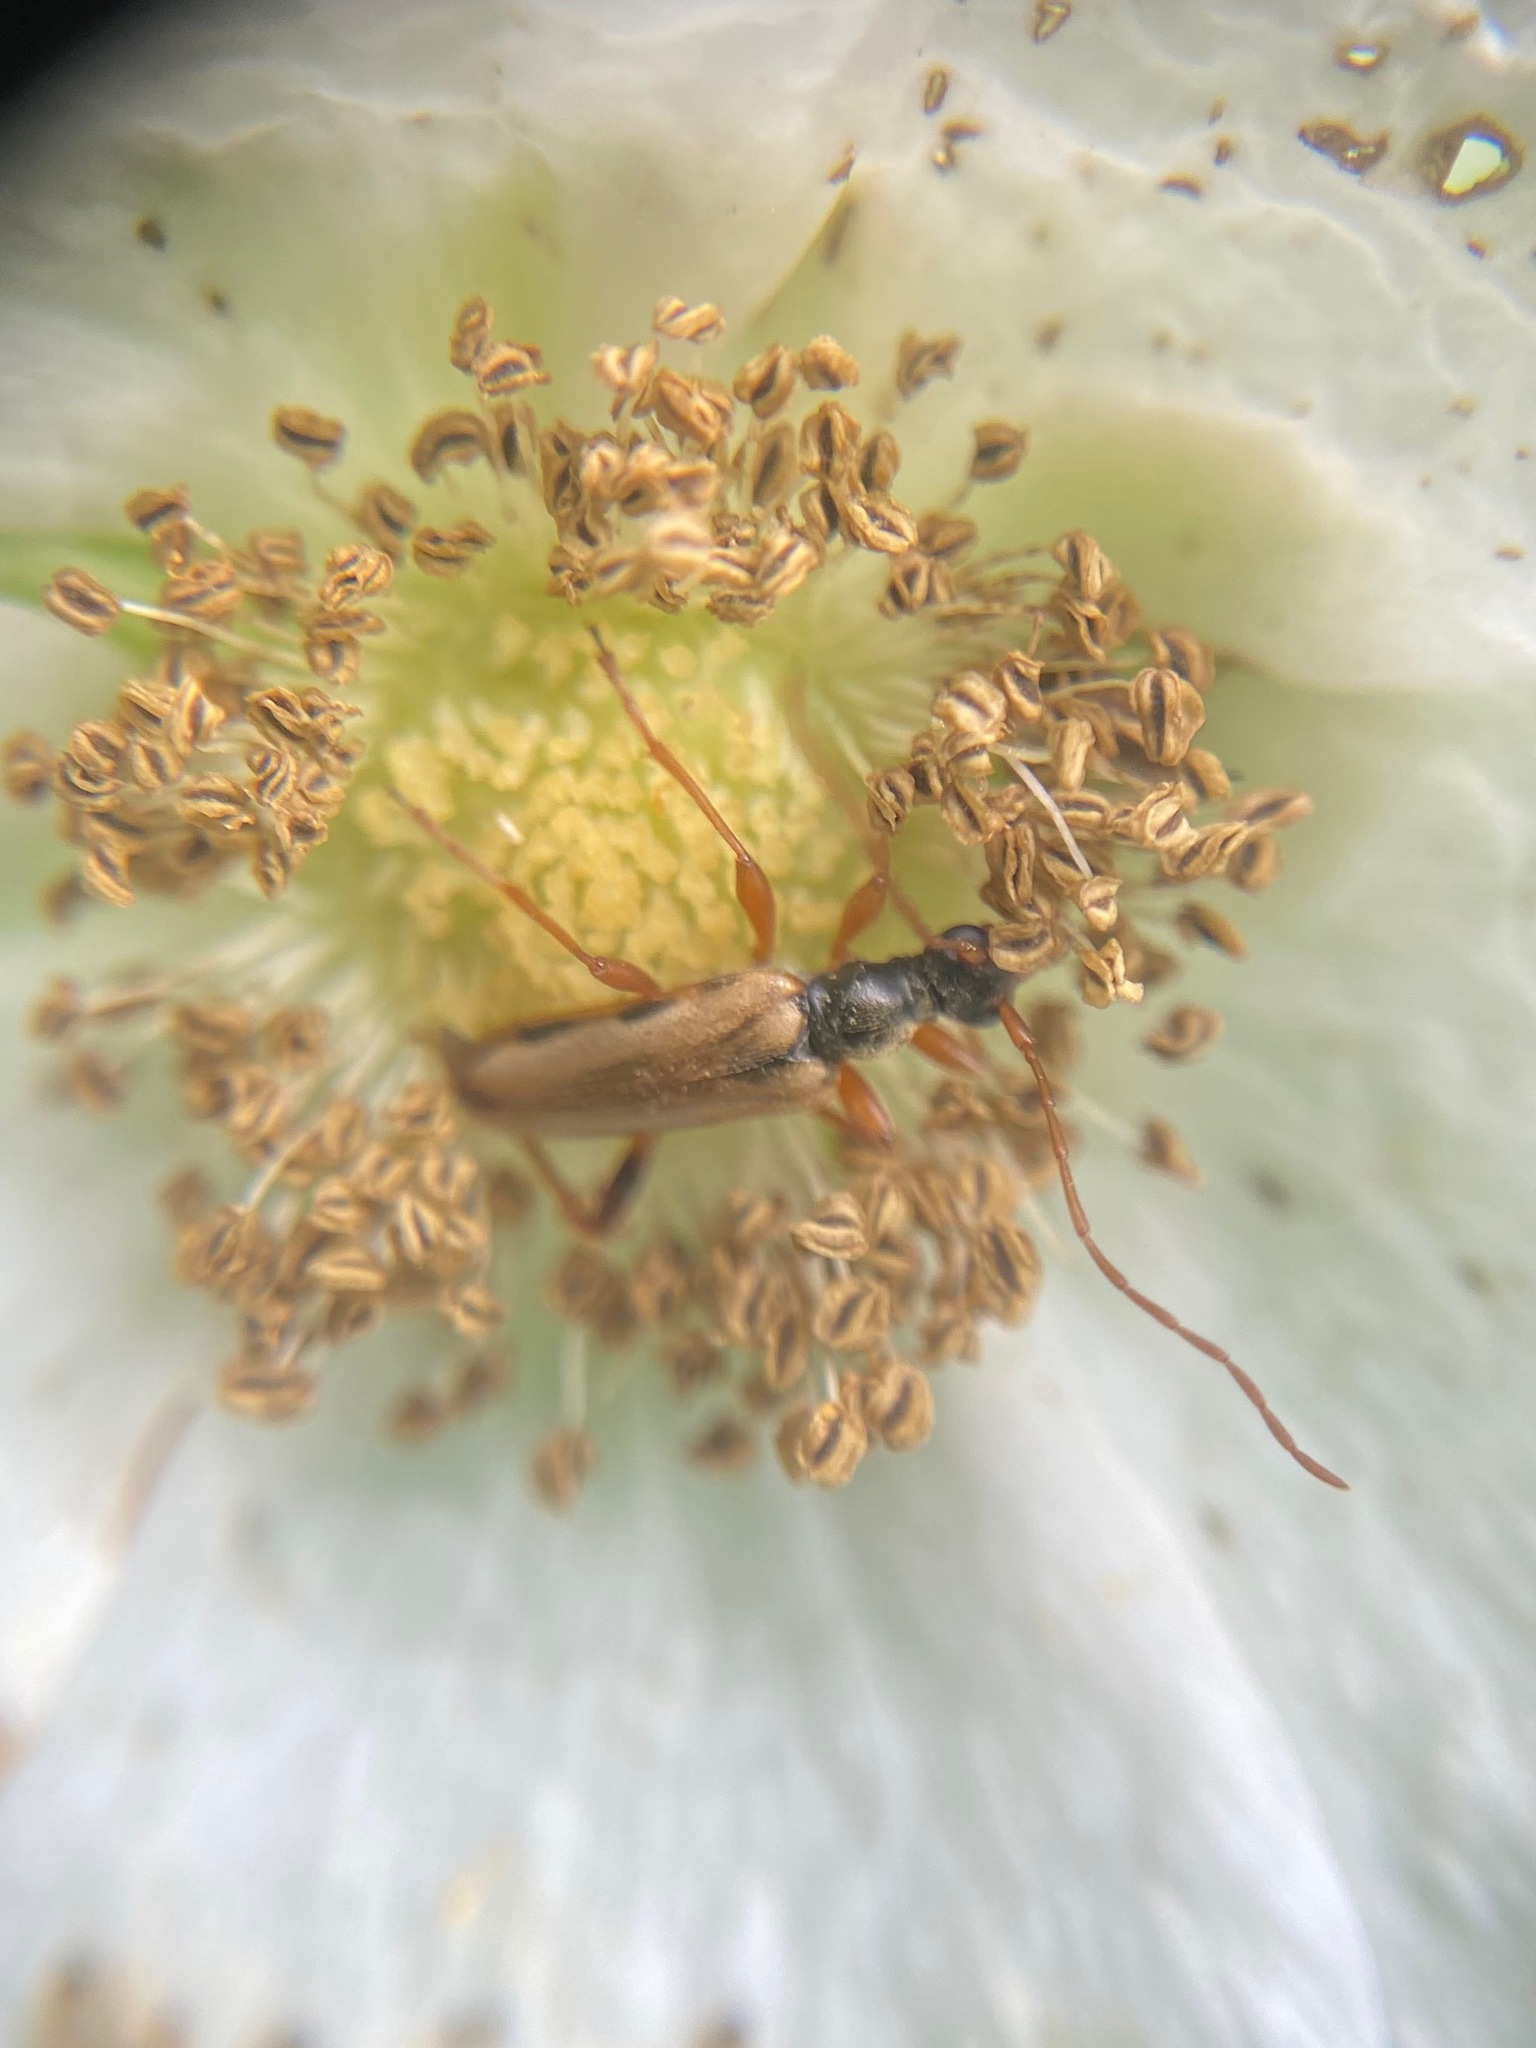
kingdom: Animalia
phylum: Arthropoda
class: Insecta
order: Coleoptera
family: Cerambycidae
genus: Pidonia
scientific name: Pidonia scripta
